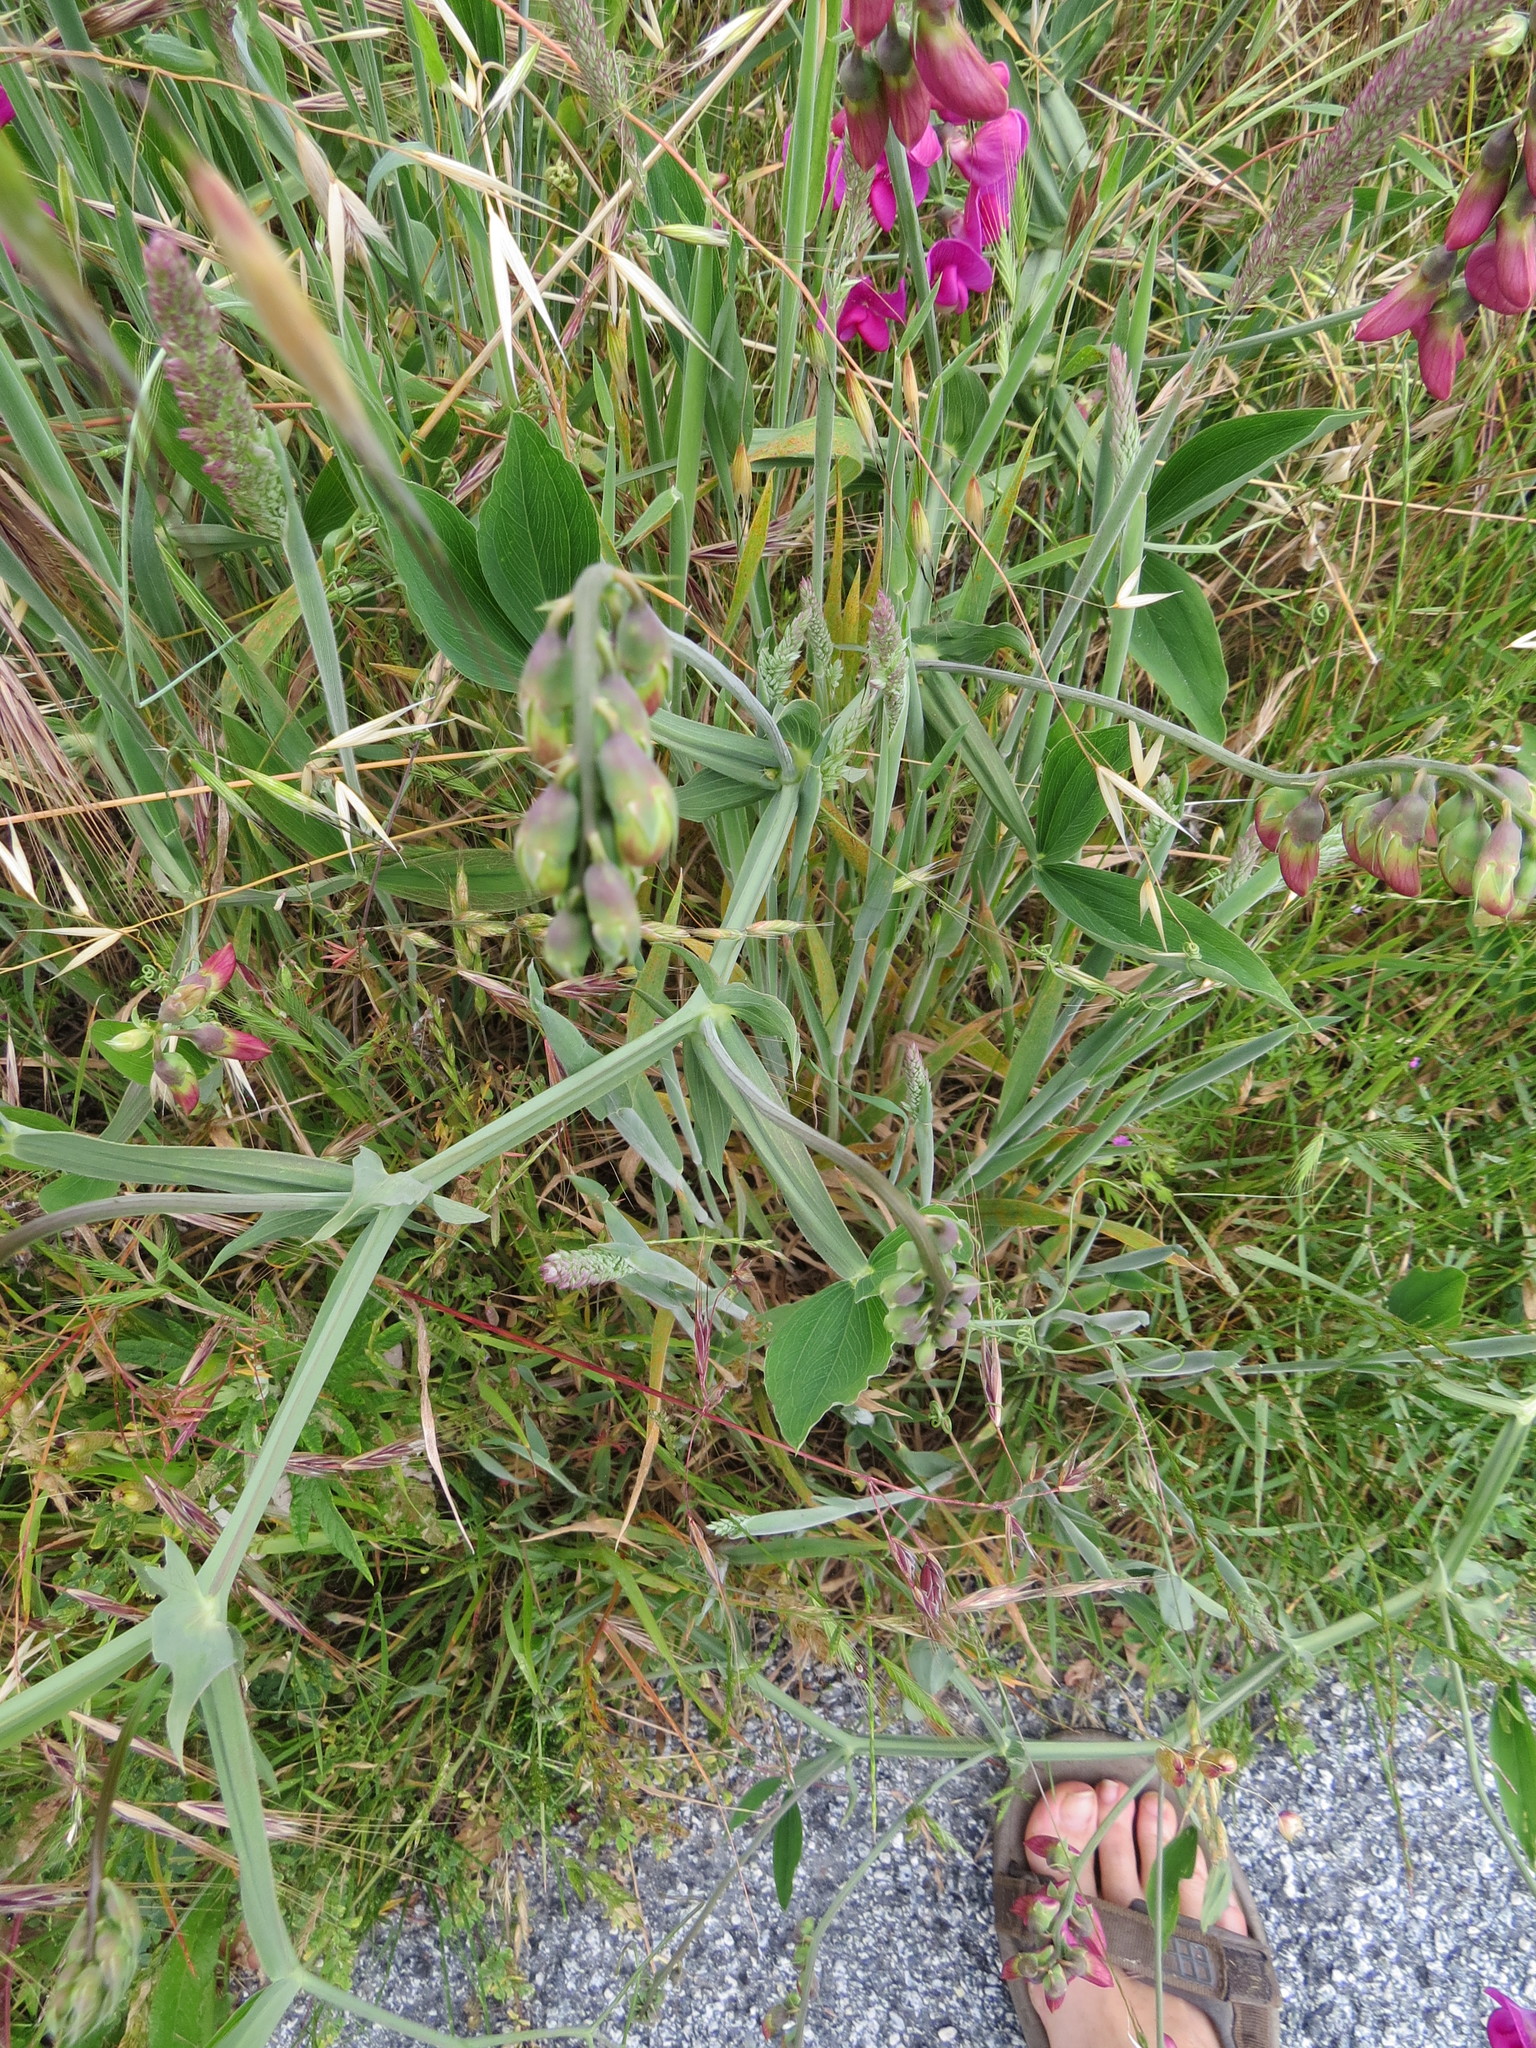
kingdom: Plantae
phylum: Tracheophyta
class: Magnoliopsida
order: Fabales
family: Fabaceae
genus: Lathyrus
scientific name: Lathyrus latifolius
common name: Perennial pea
